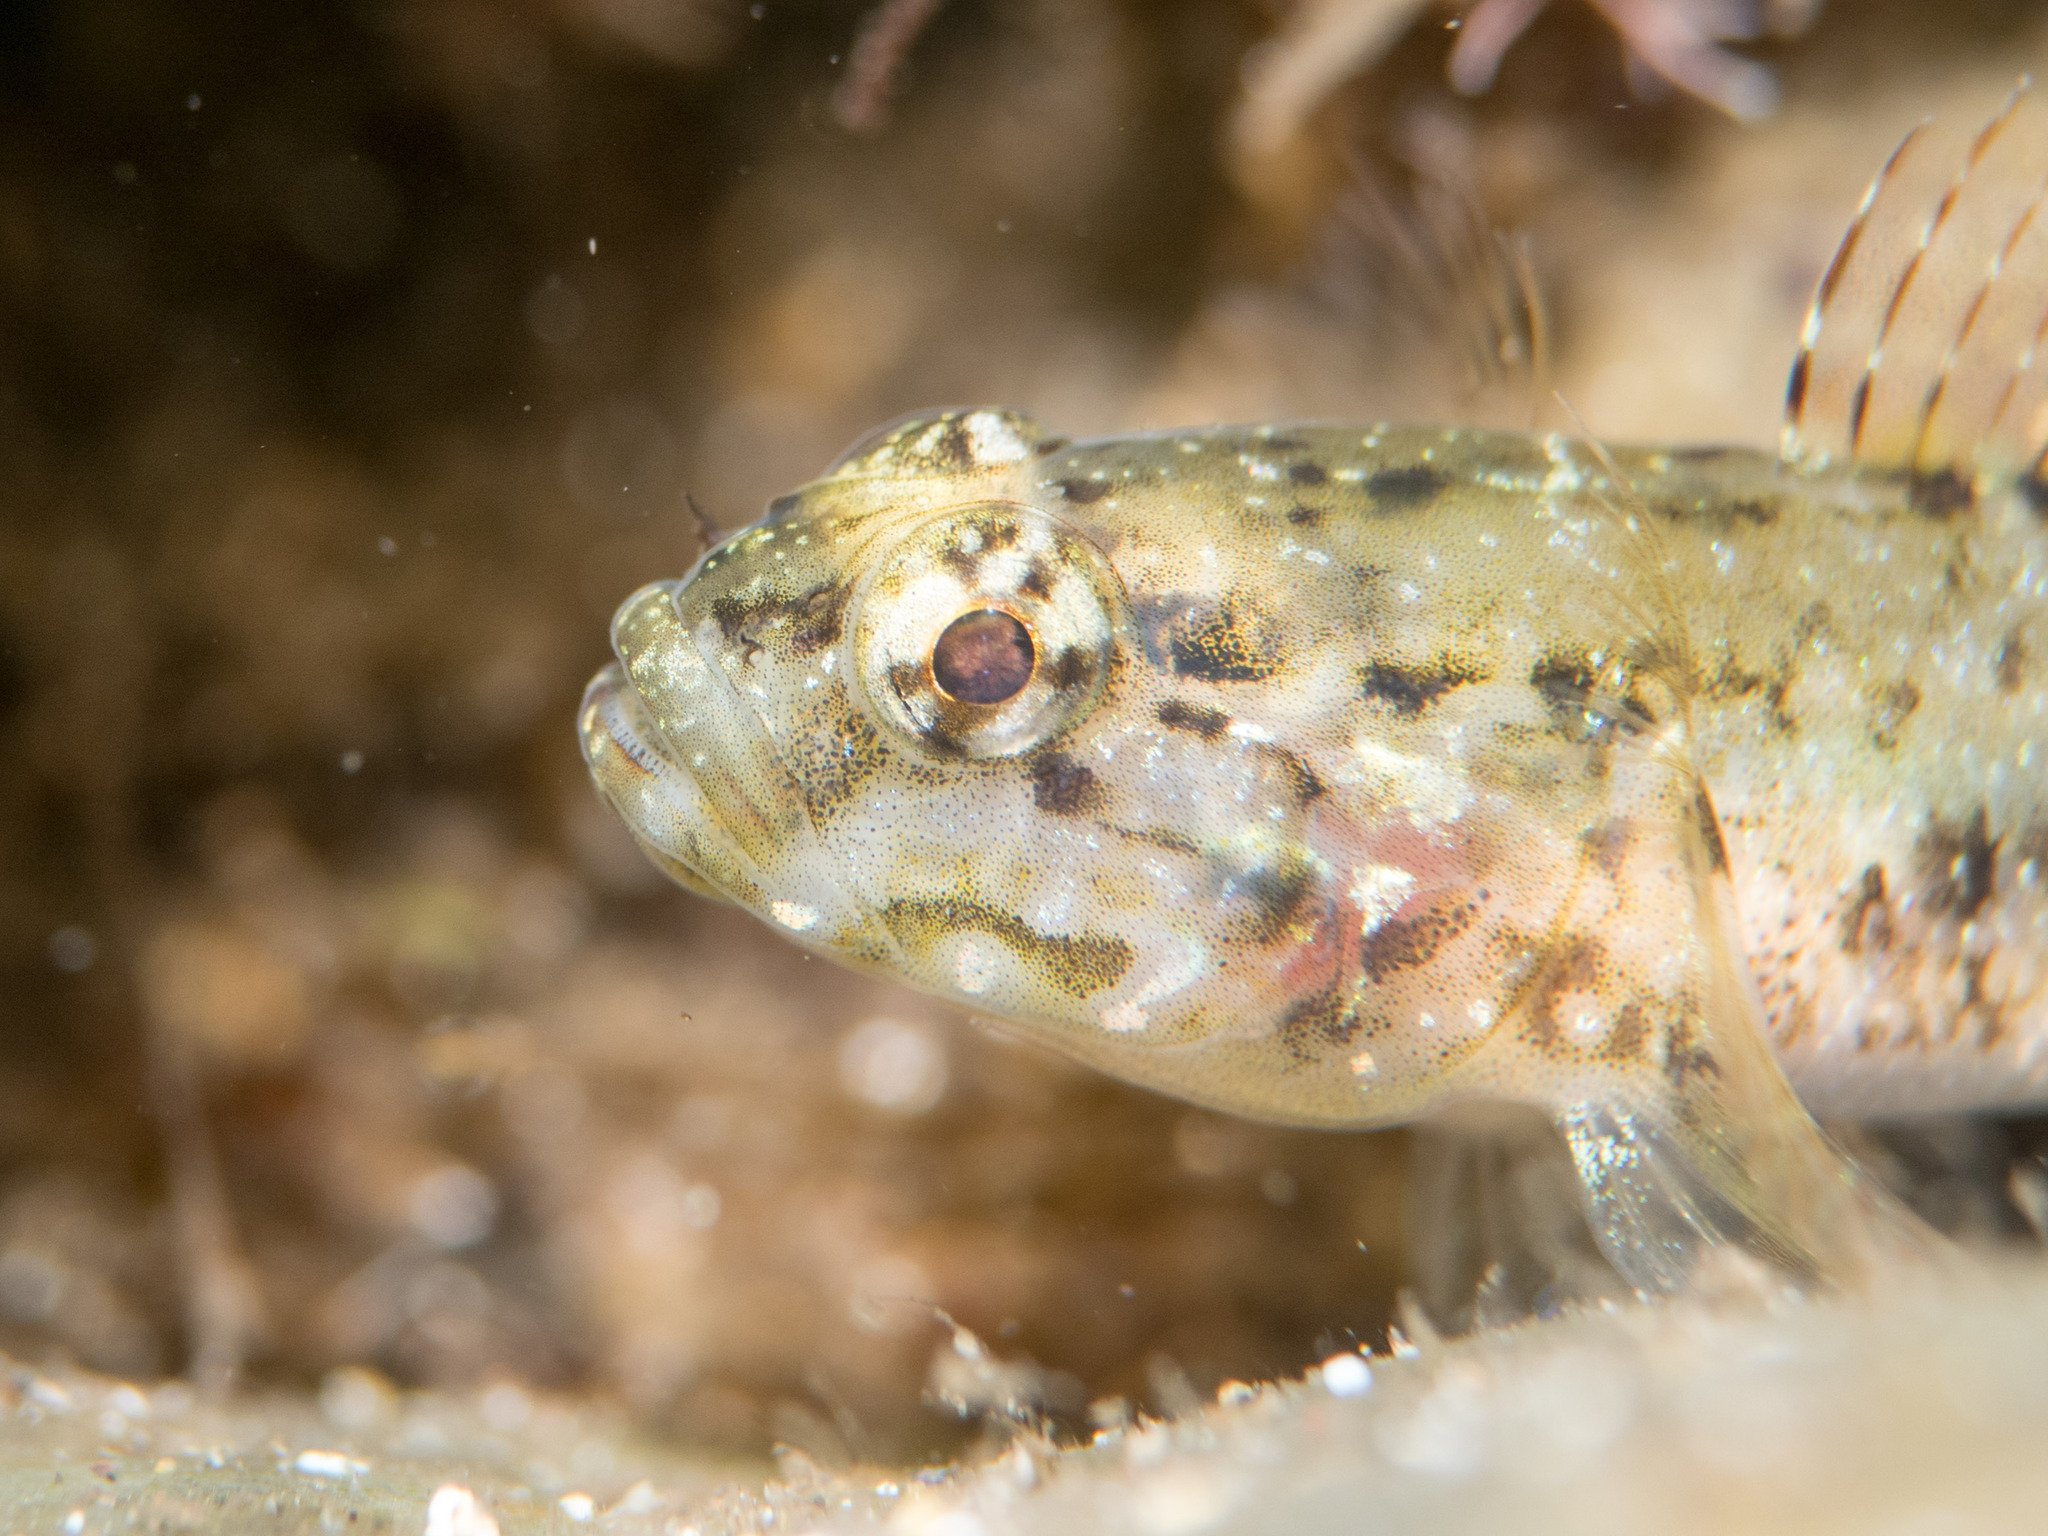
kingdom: Animalia
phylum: Chordata
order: Perciformes
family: Gobiidae
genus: Gobius
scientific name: Gobius paganellus
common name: Rock goby
